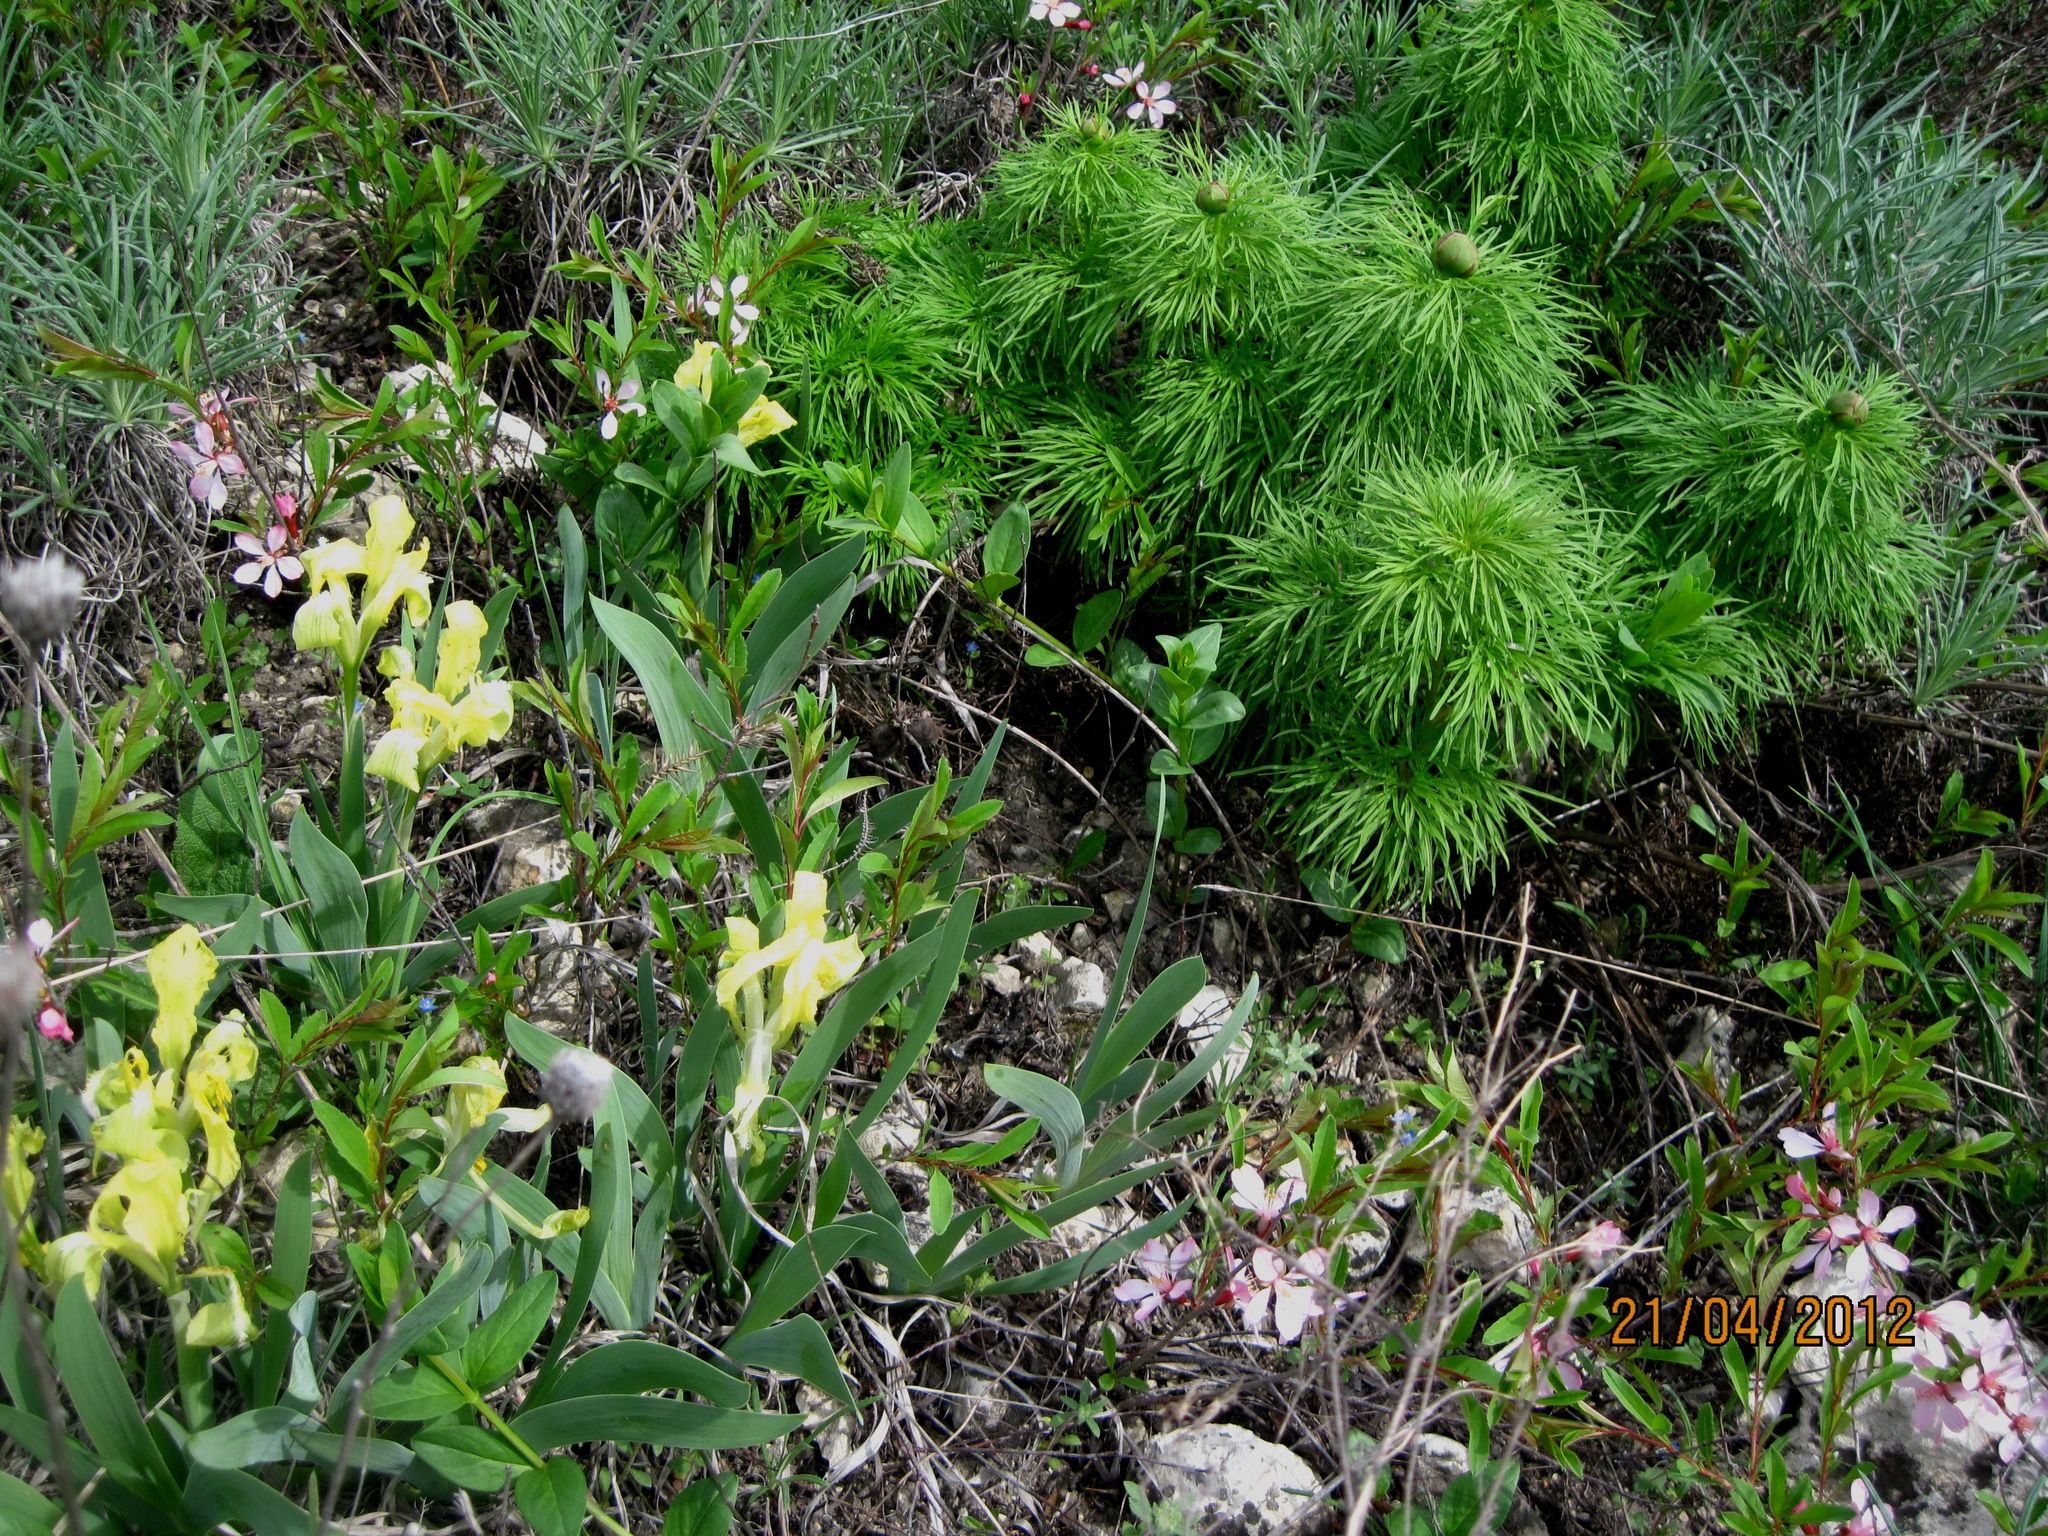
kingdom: Plantae
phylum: Tracheophyta
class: Magnoliopsida
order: Saxifragales
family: Paeoniaceae
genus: Paeonia
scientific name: Paeonia tenuifolia
